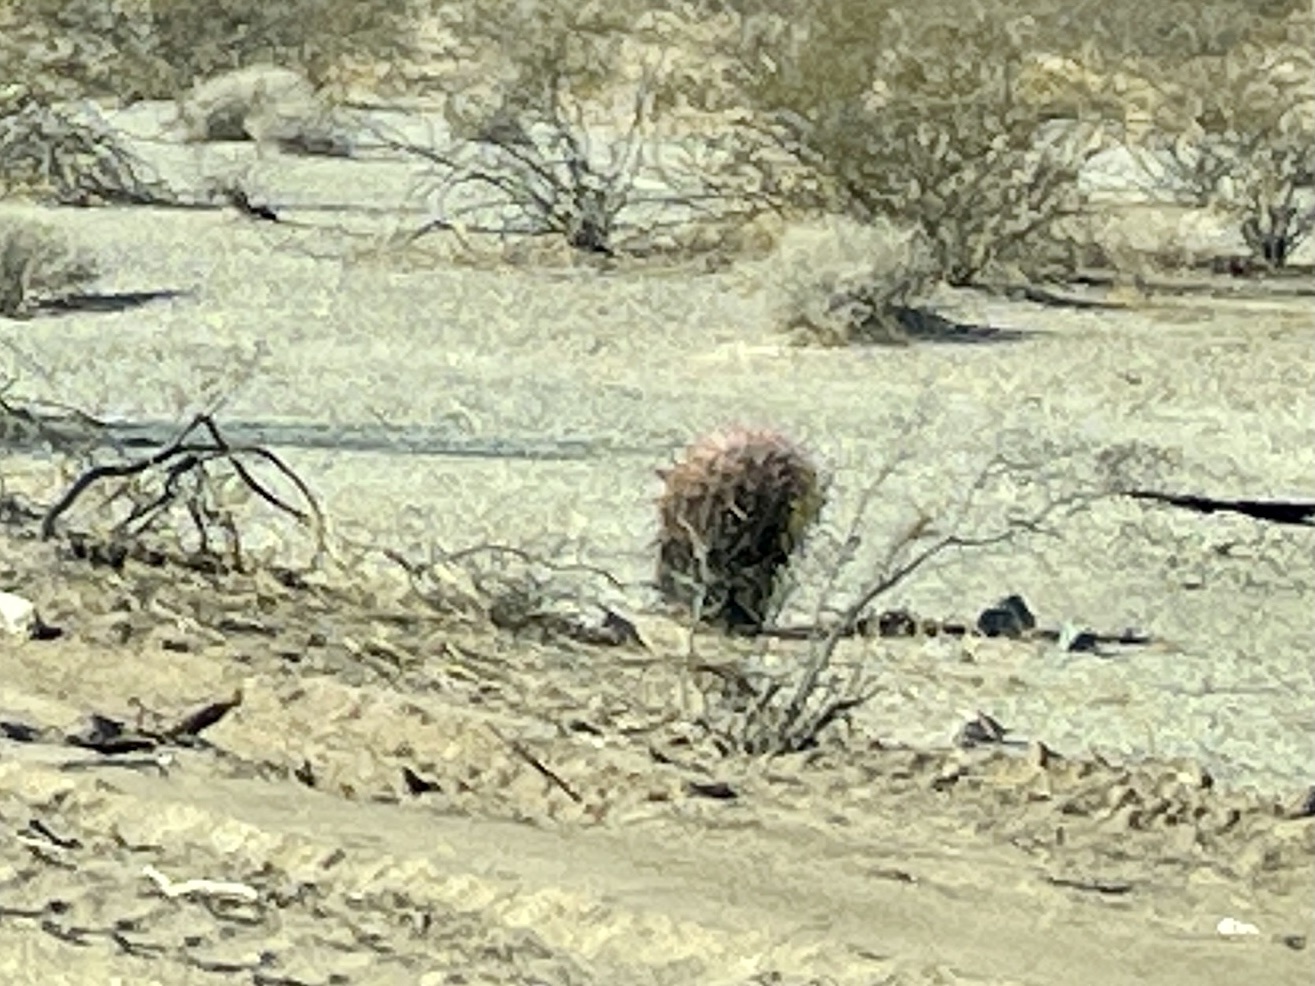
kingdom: Plantae
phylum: Tracheophyta
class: Magnoliopsida
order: Caryophyllales
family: Cactaceae
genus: Ferocactus
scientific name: Ferocactus cylindraceus
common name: California barrel cactus
